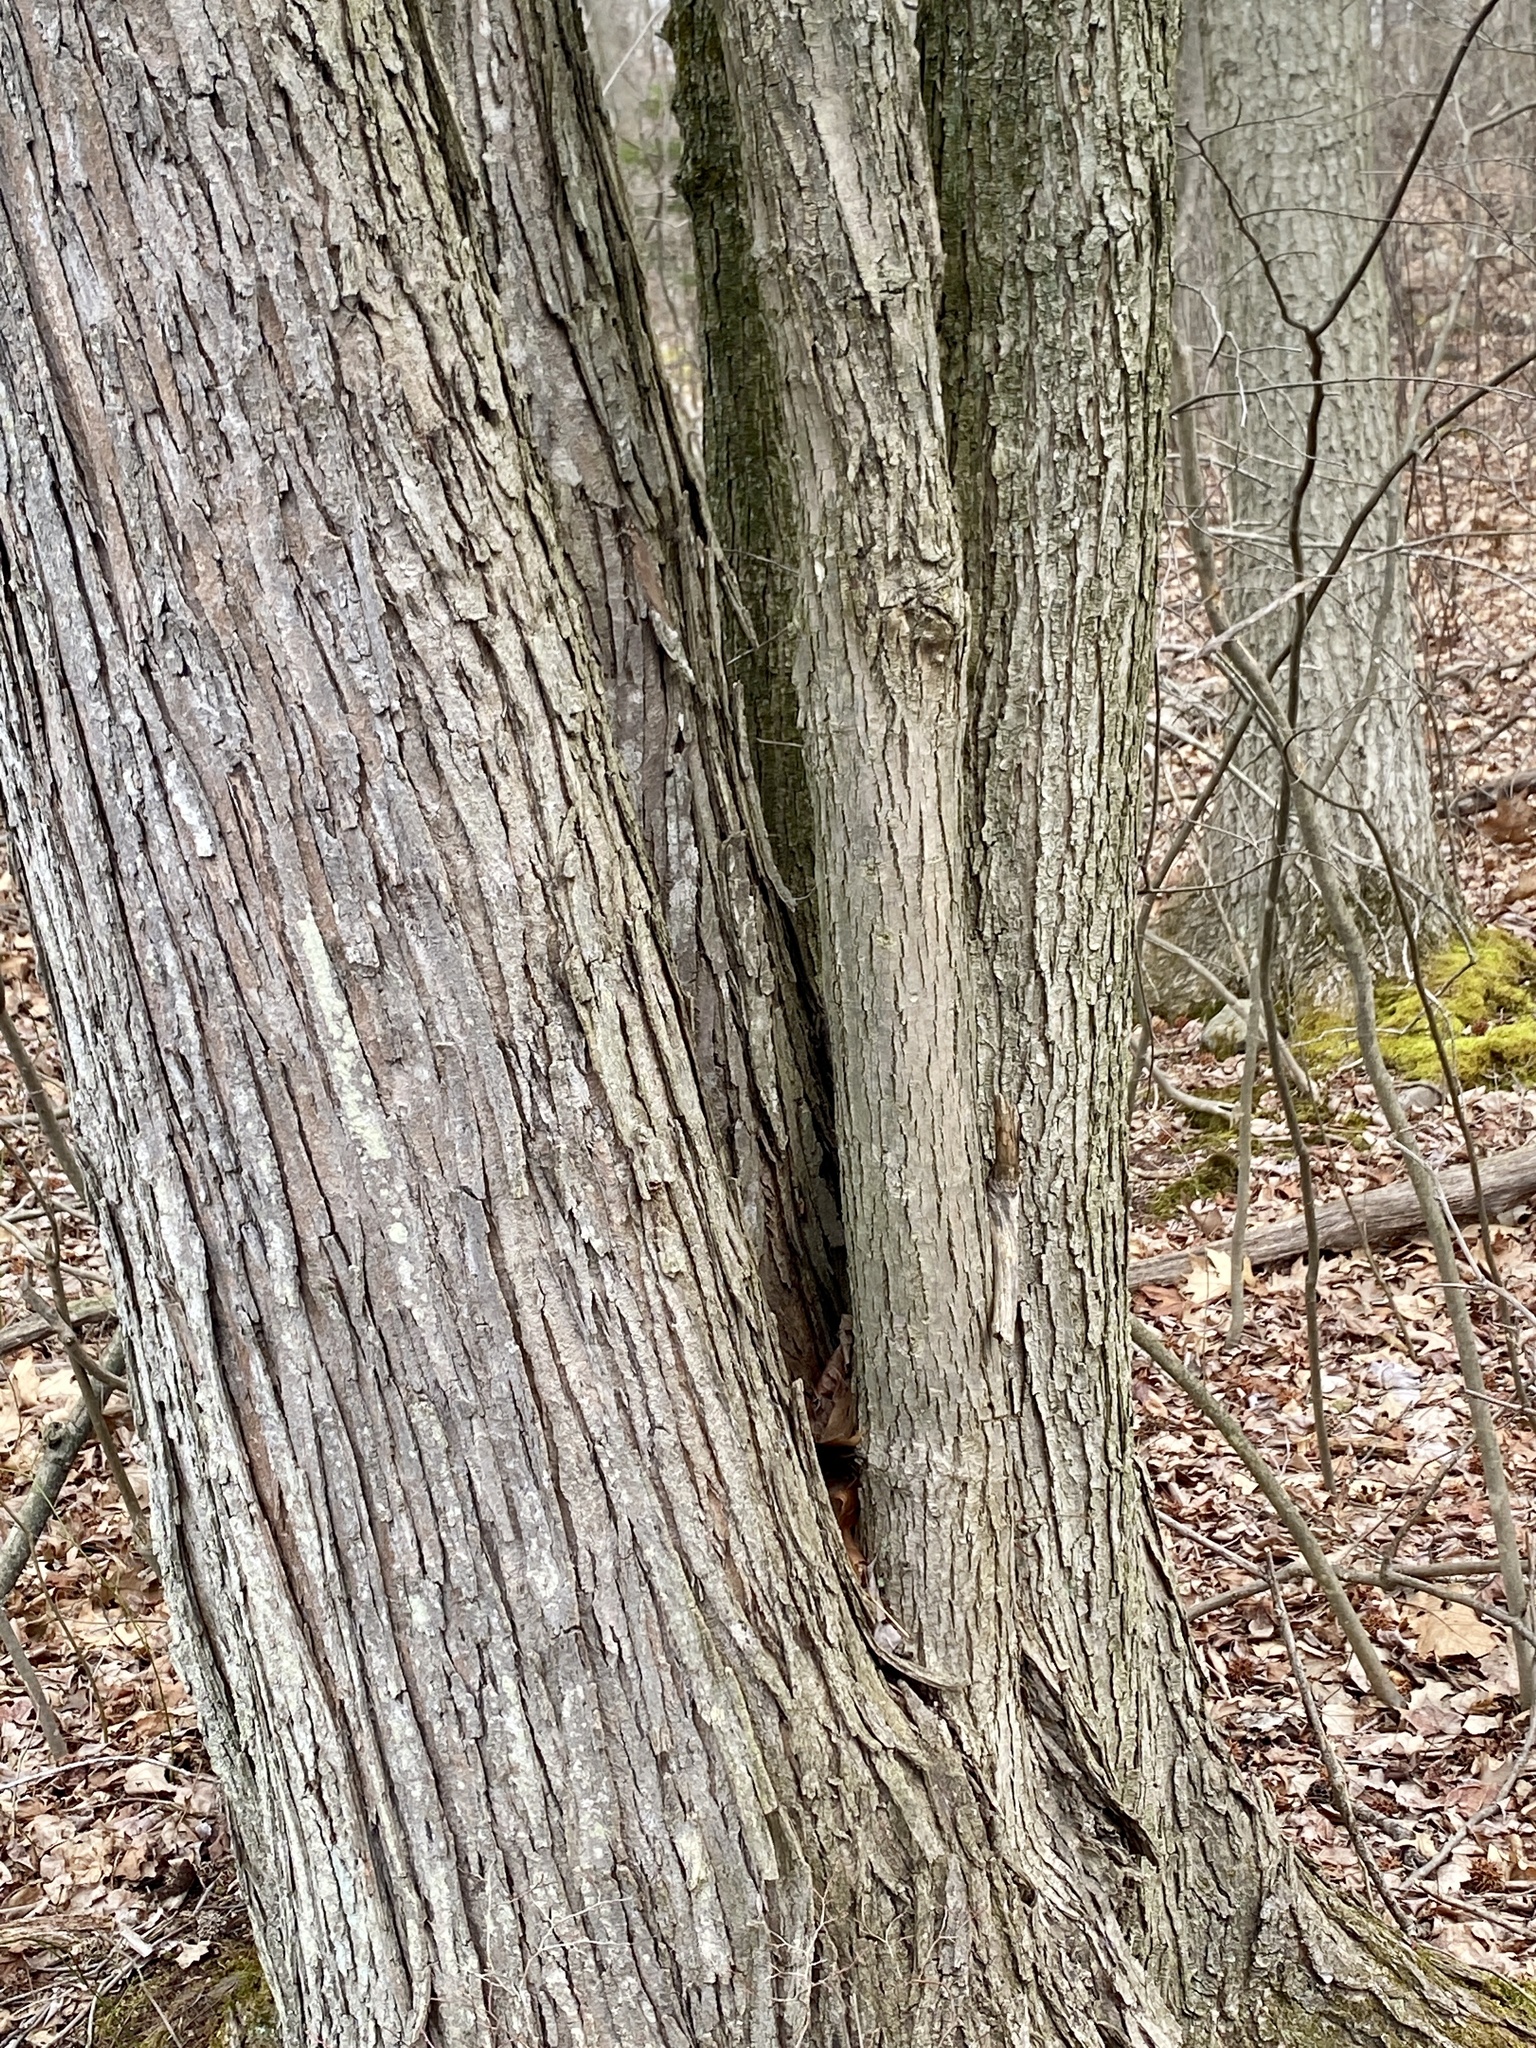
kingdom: Plantae
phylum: Tracheophyta
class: Magnoliopsida
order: Sapindales
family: Sapindaceae
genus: Acer
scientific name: Acer rubrum
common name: Red maple
